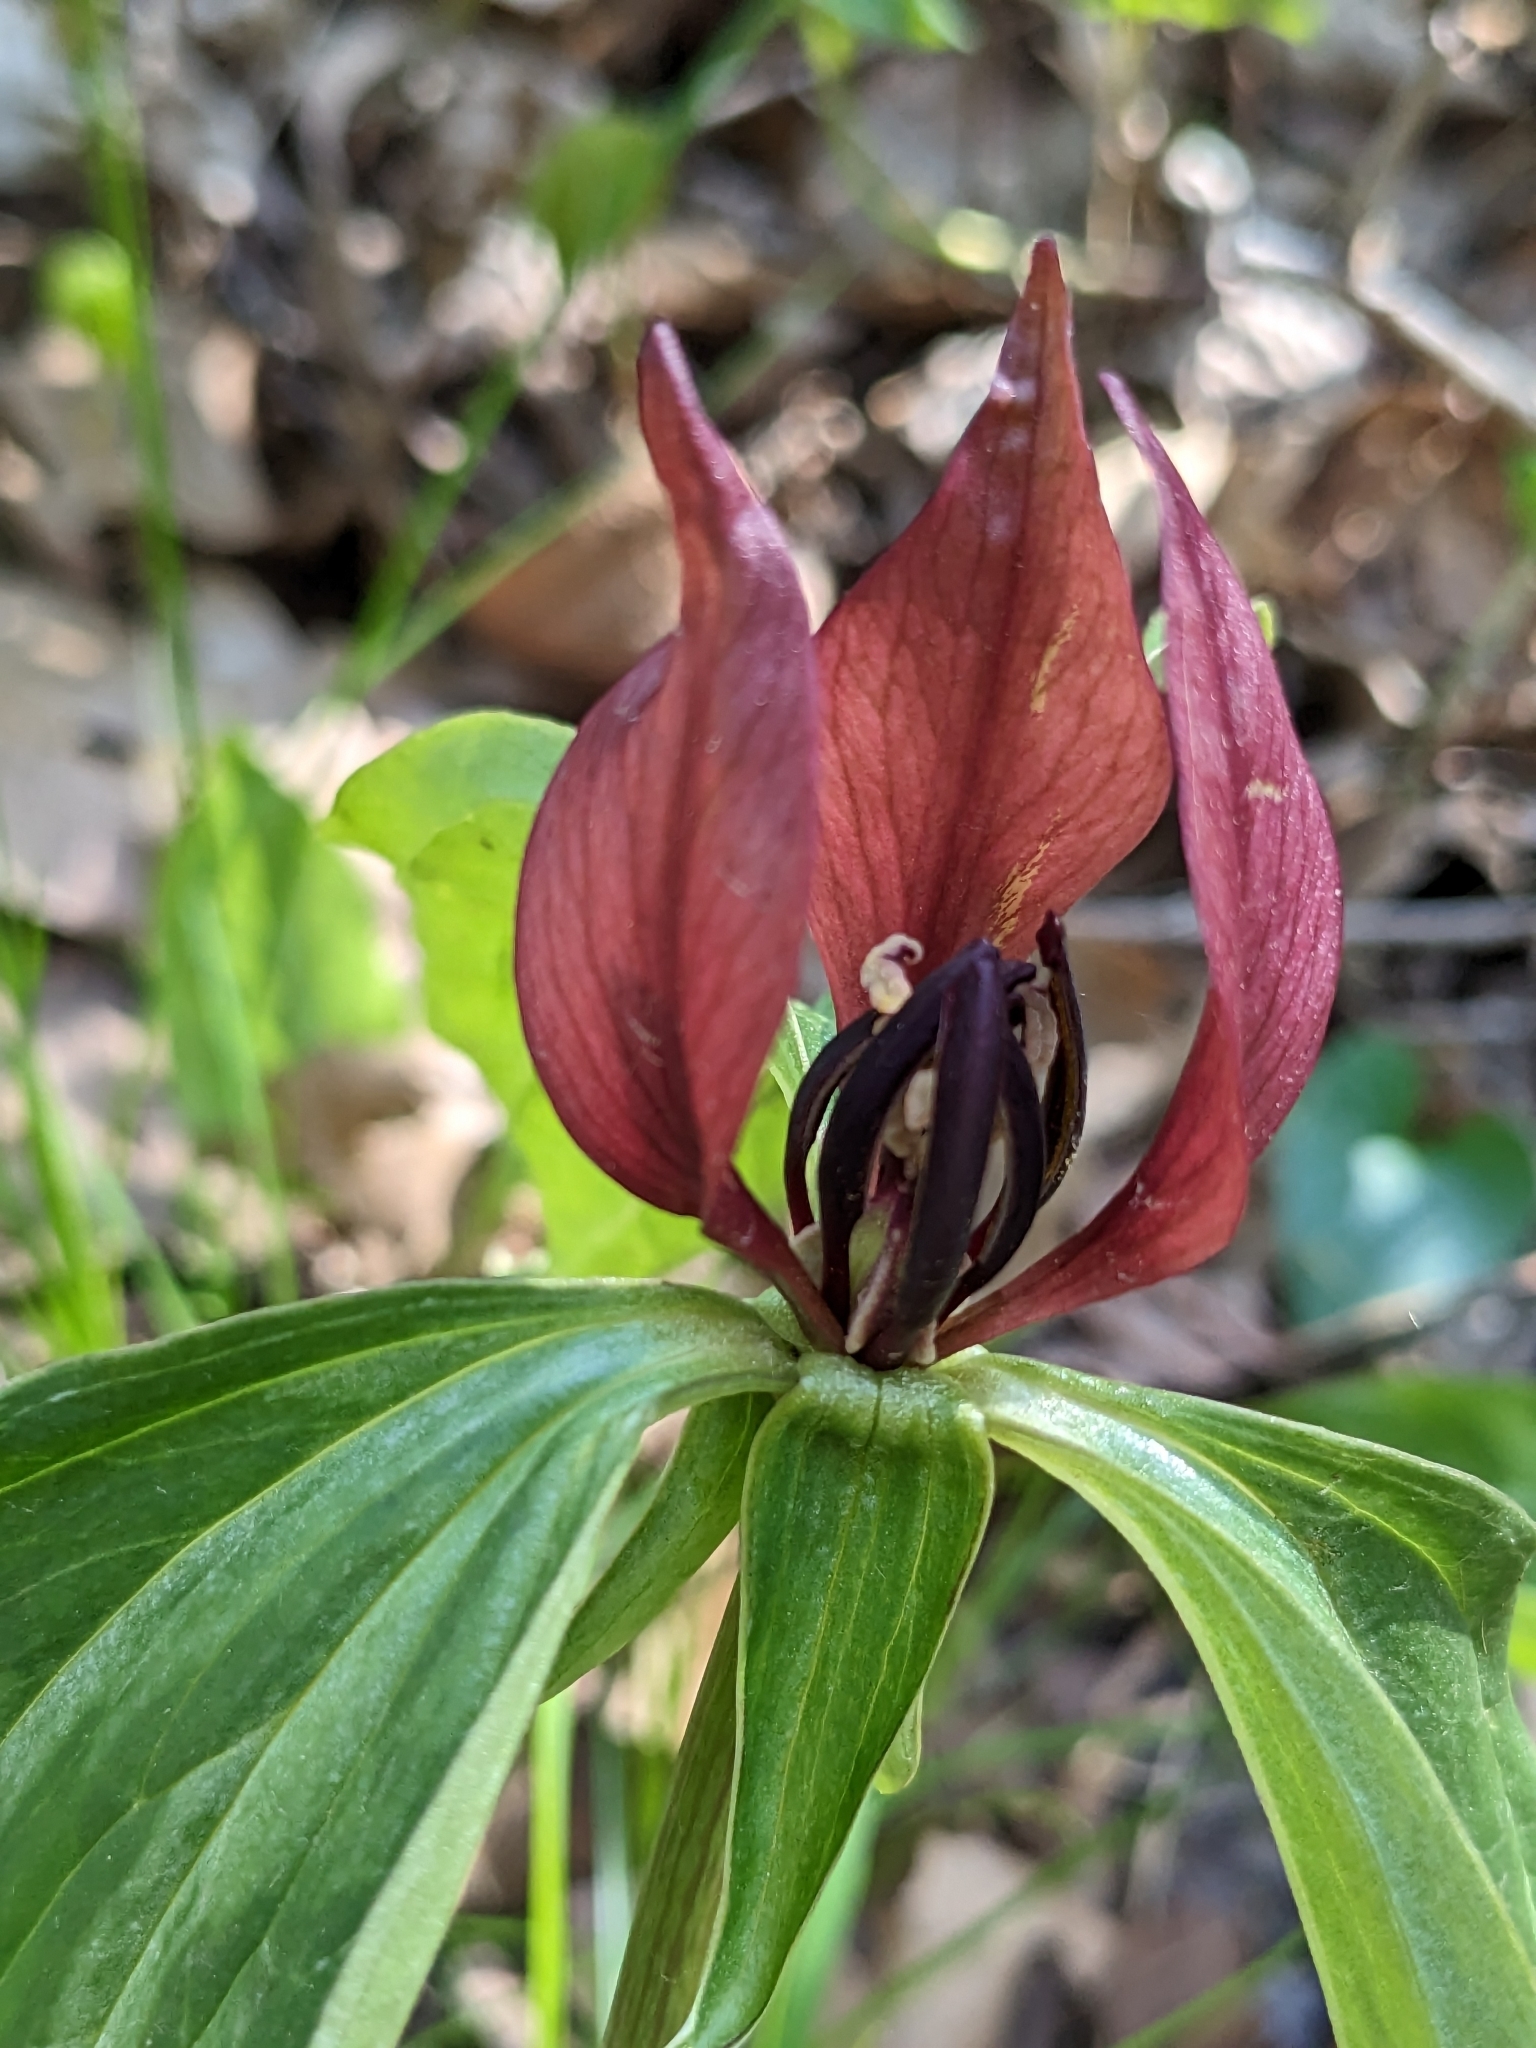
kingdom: Plantae
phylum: Tracheophyta
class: Liliopsida
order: Liliales
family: Melanthiaceae
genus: Trillium
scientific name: Trillium recurvatum
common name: Bloody butcher
